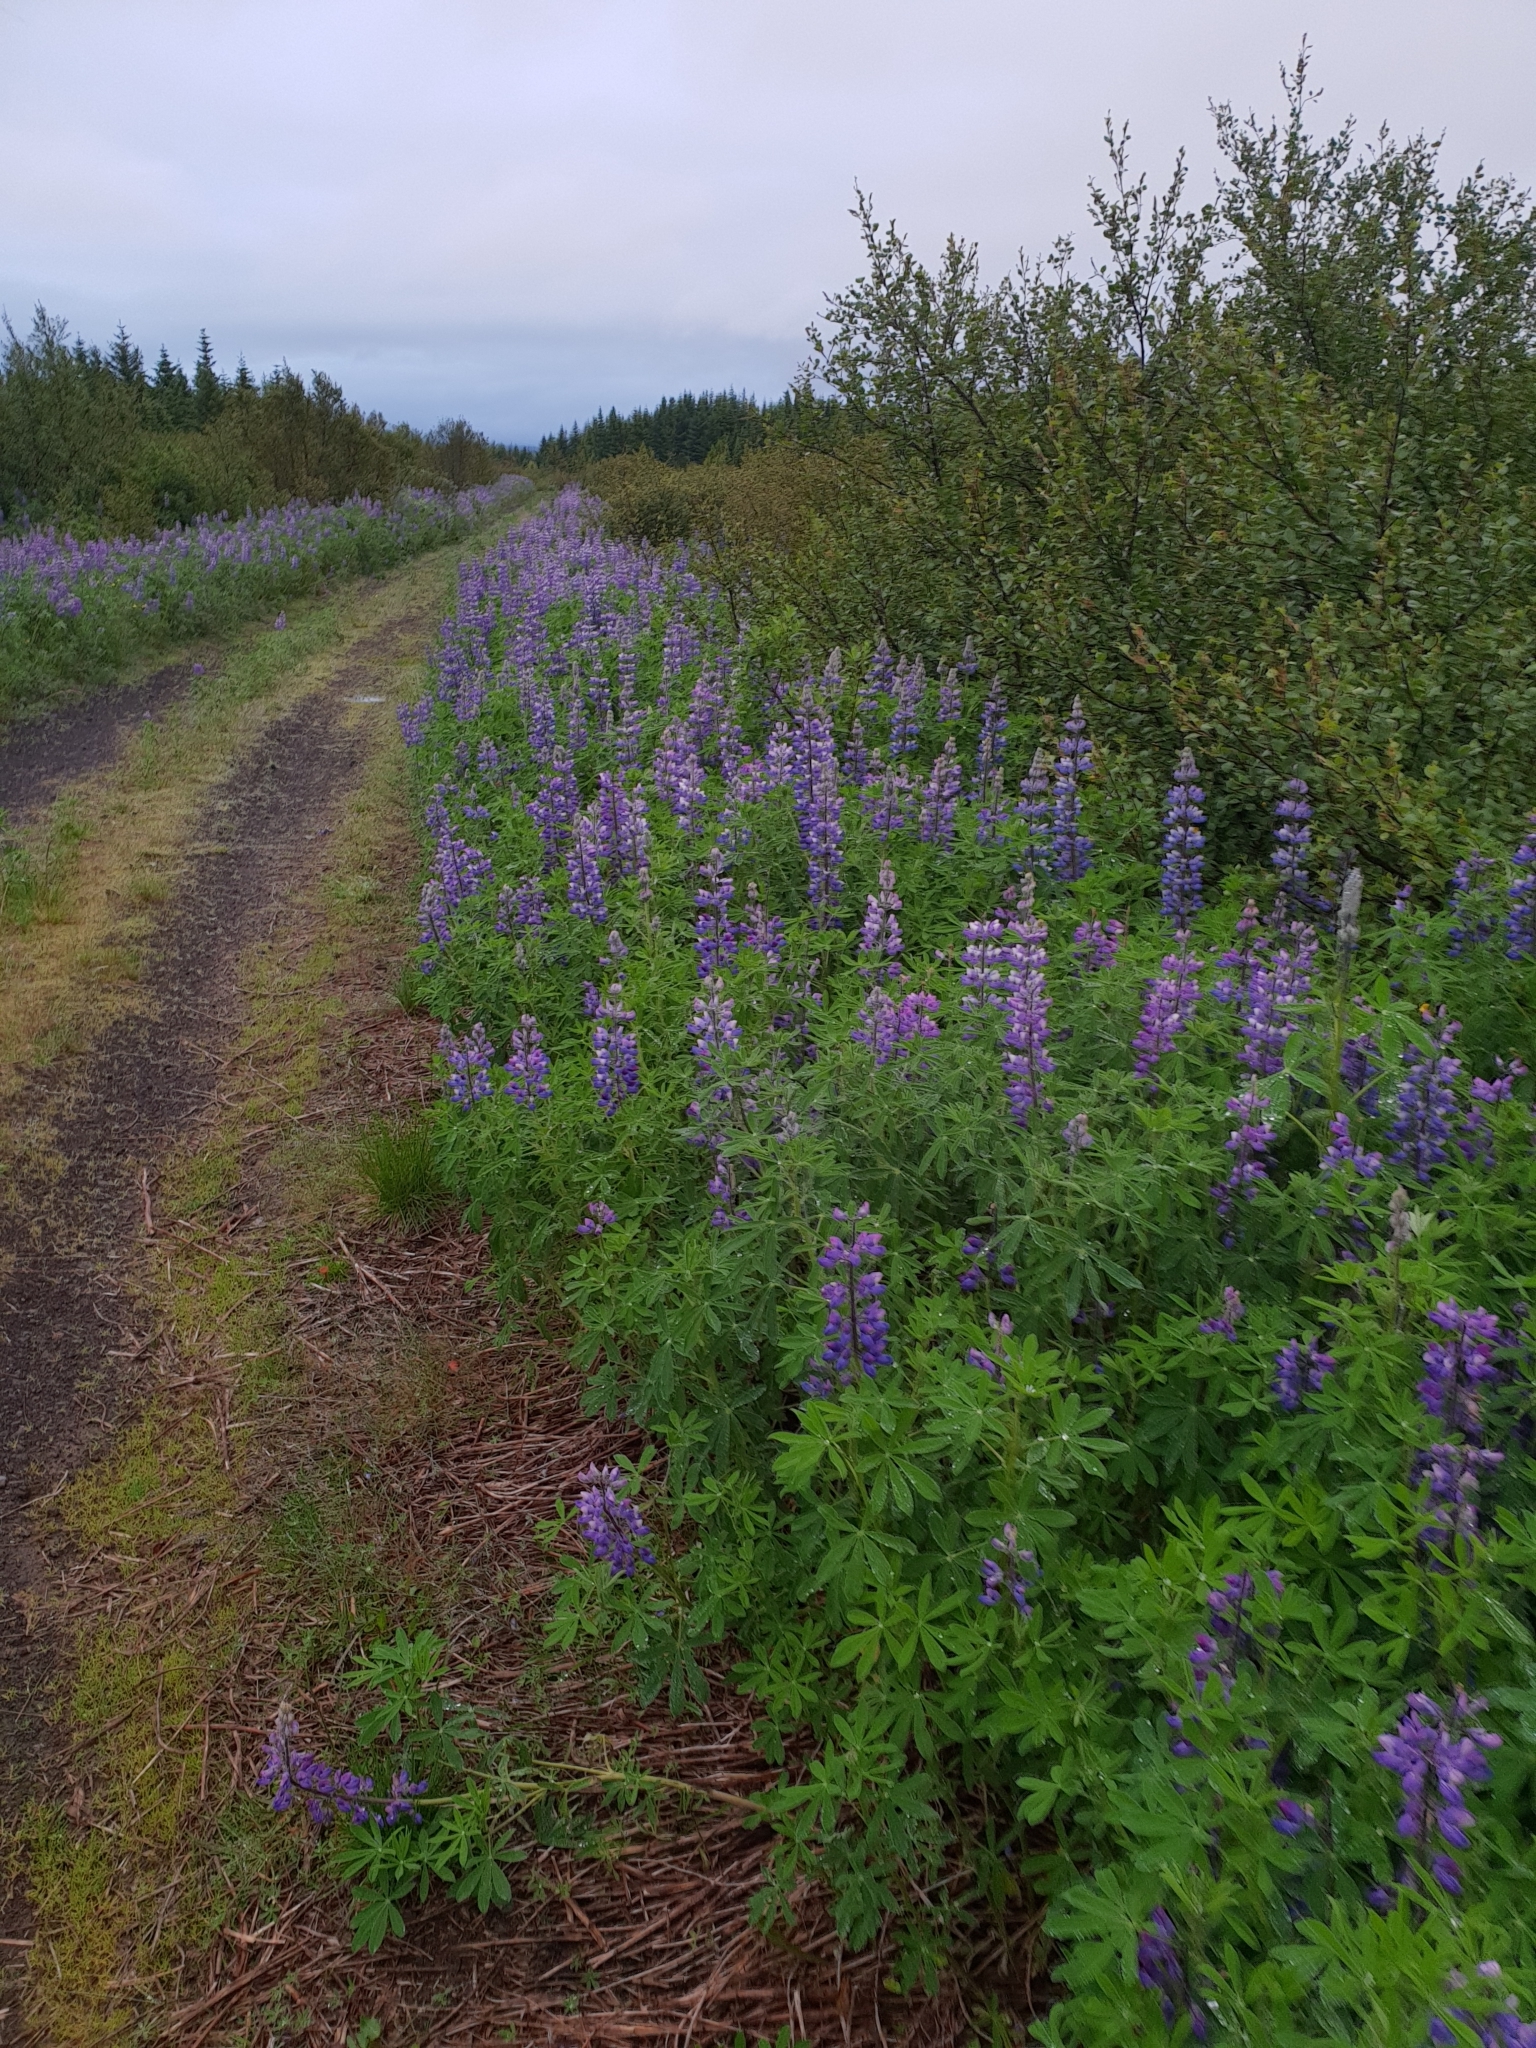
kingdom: Plantae
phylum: Tracheophyta
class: Magnoliopsida
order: Fabales
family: Fabaceae
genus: Lupinus
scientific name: Lupinus nootkatensis
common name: Nootka lupine
